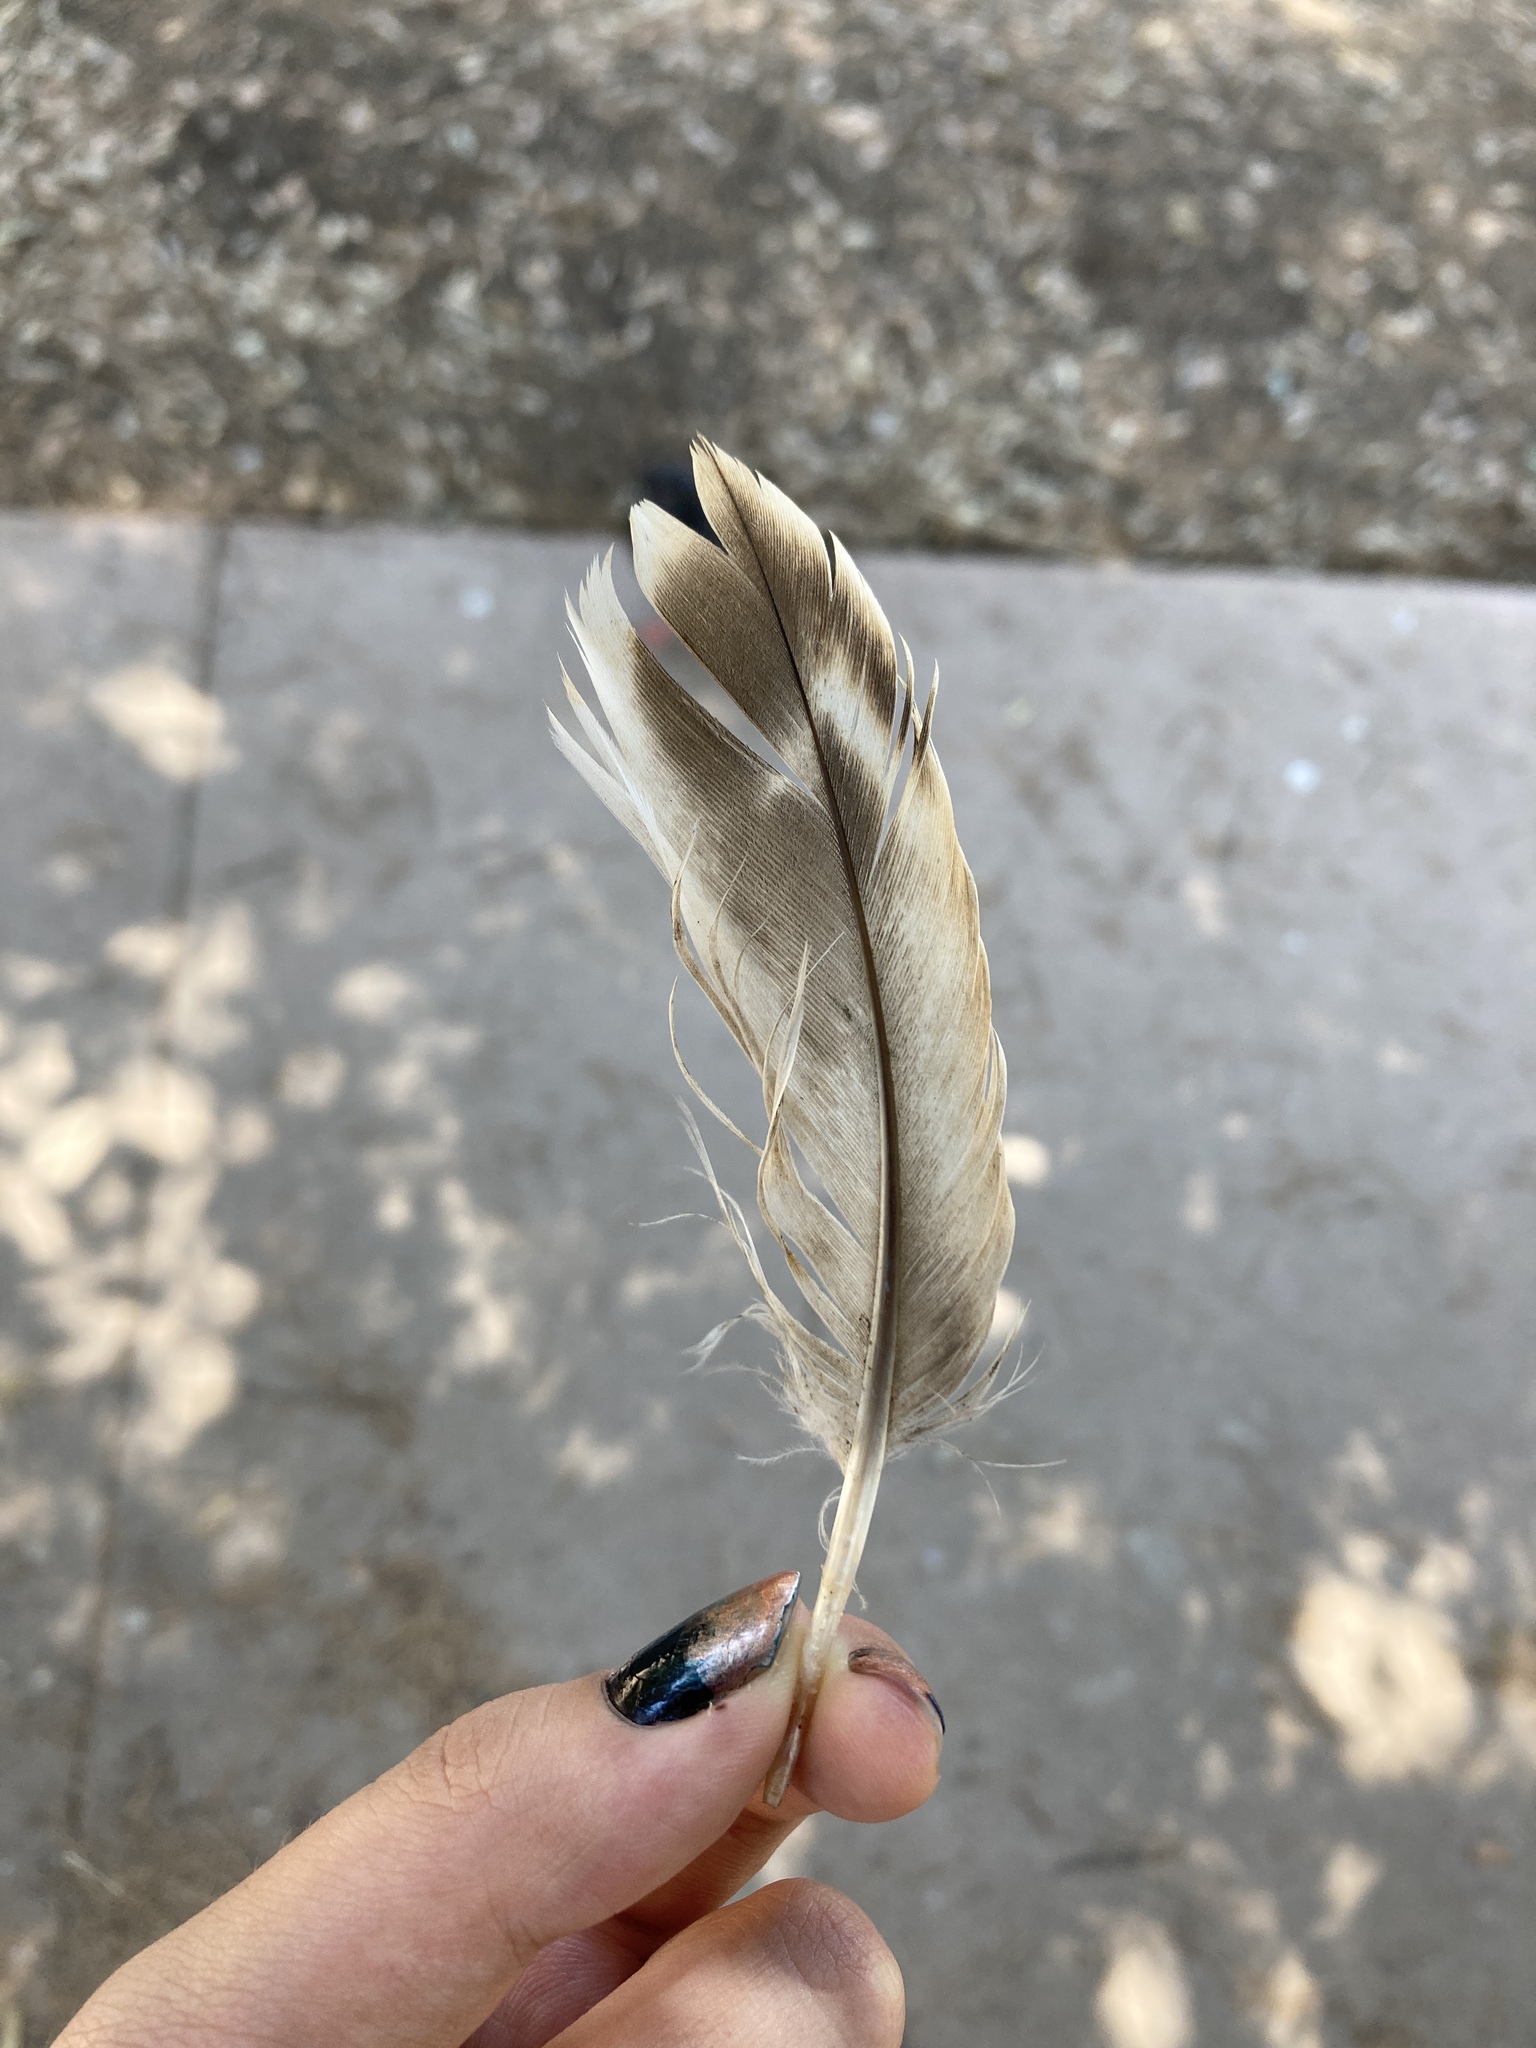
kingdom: Animalia
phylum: Chordata
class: Aves
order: Anseriformes
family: Anatidae
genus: Anas
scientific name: Anas platyrhynchos
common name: Mallard
